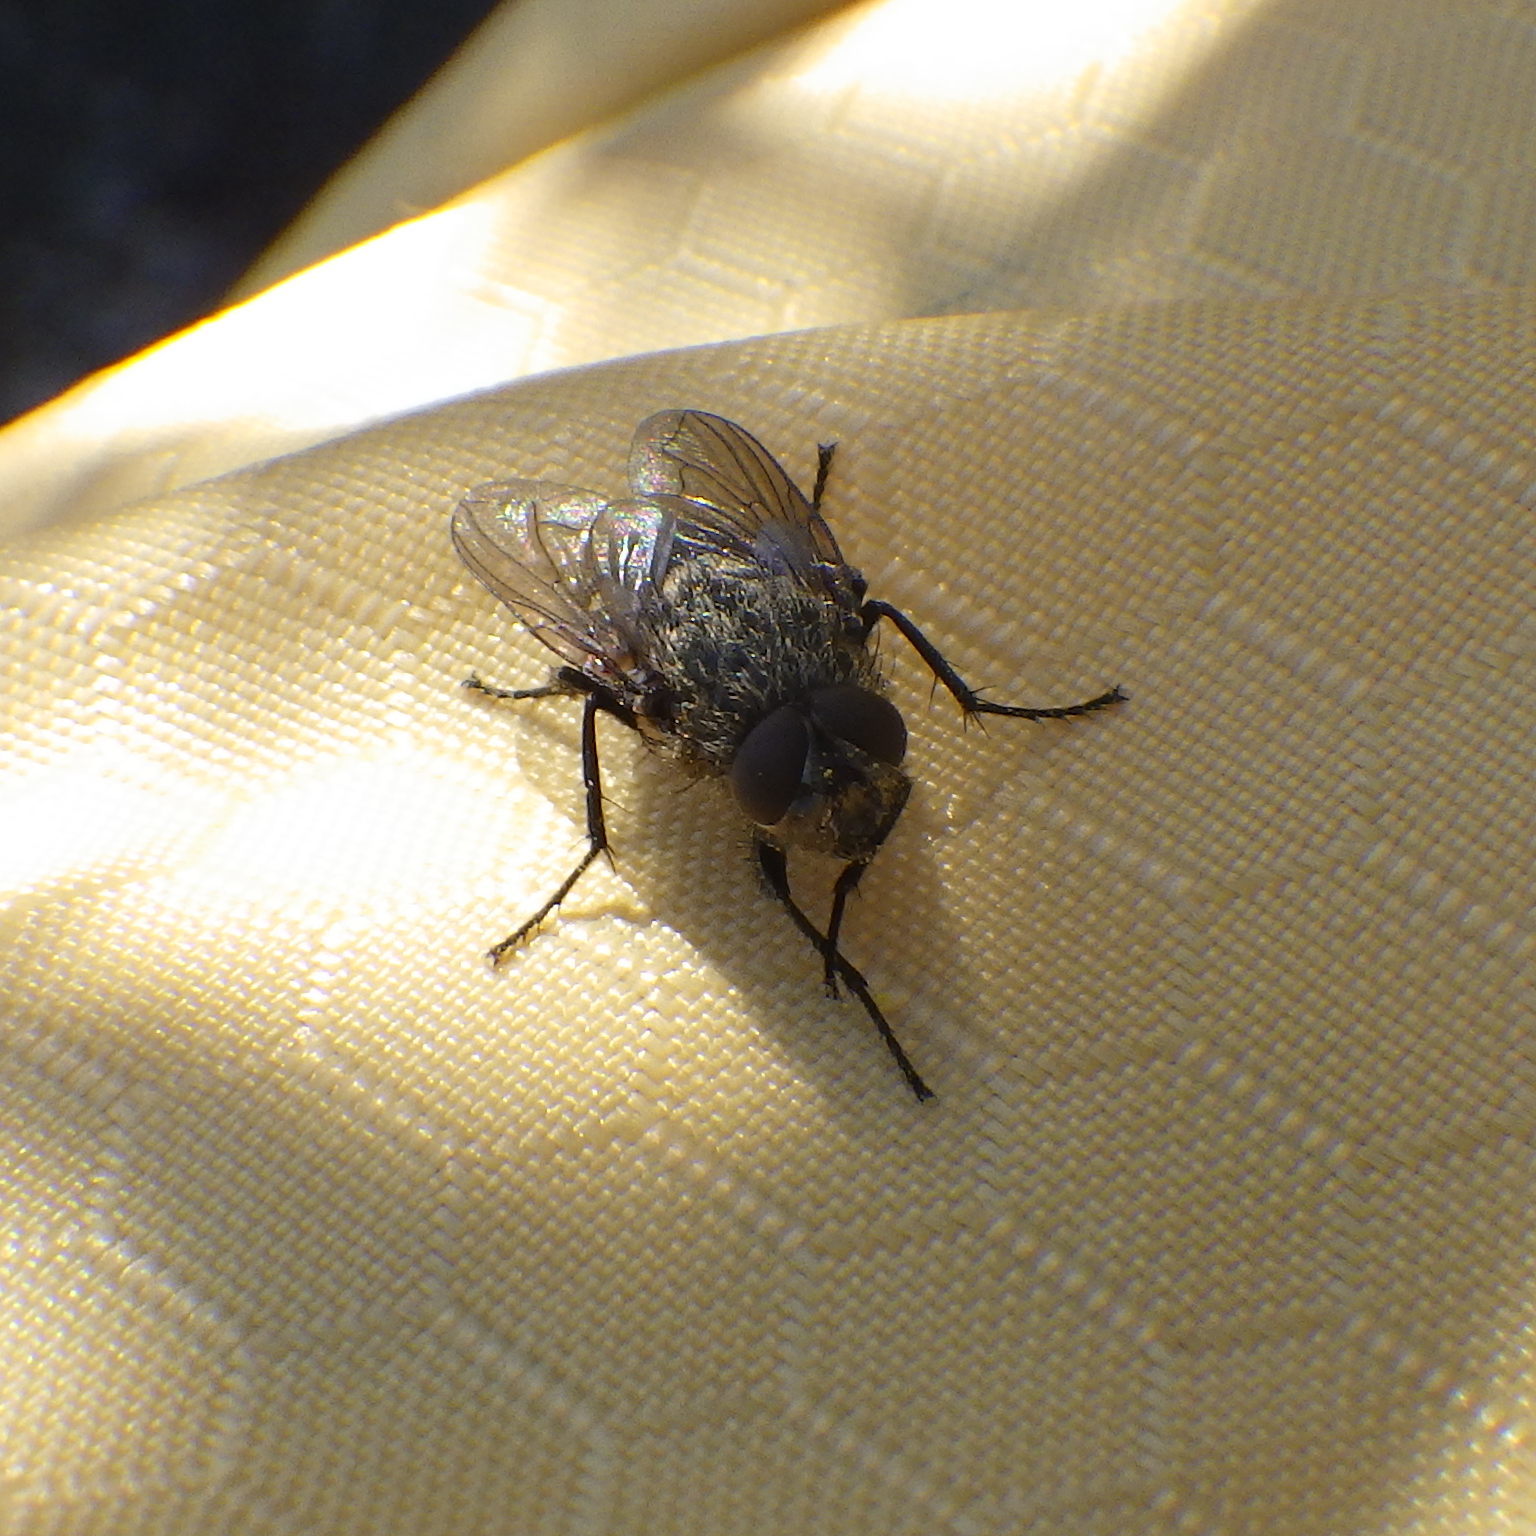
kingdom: Animalia
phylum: Arthropoda
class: Insecta
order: Diptera
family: Polleniidae
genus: Pollenia
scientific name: Pollenia
